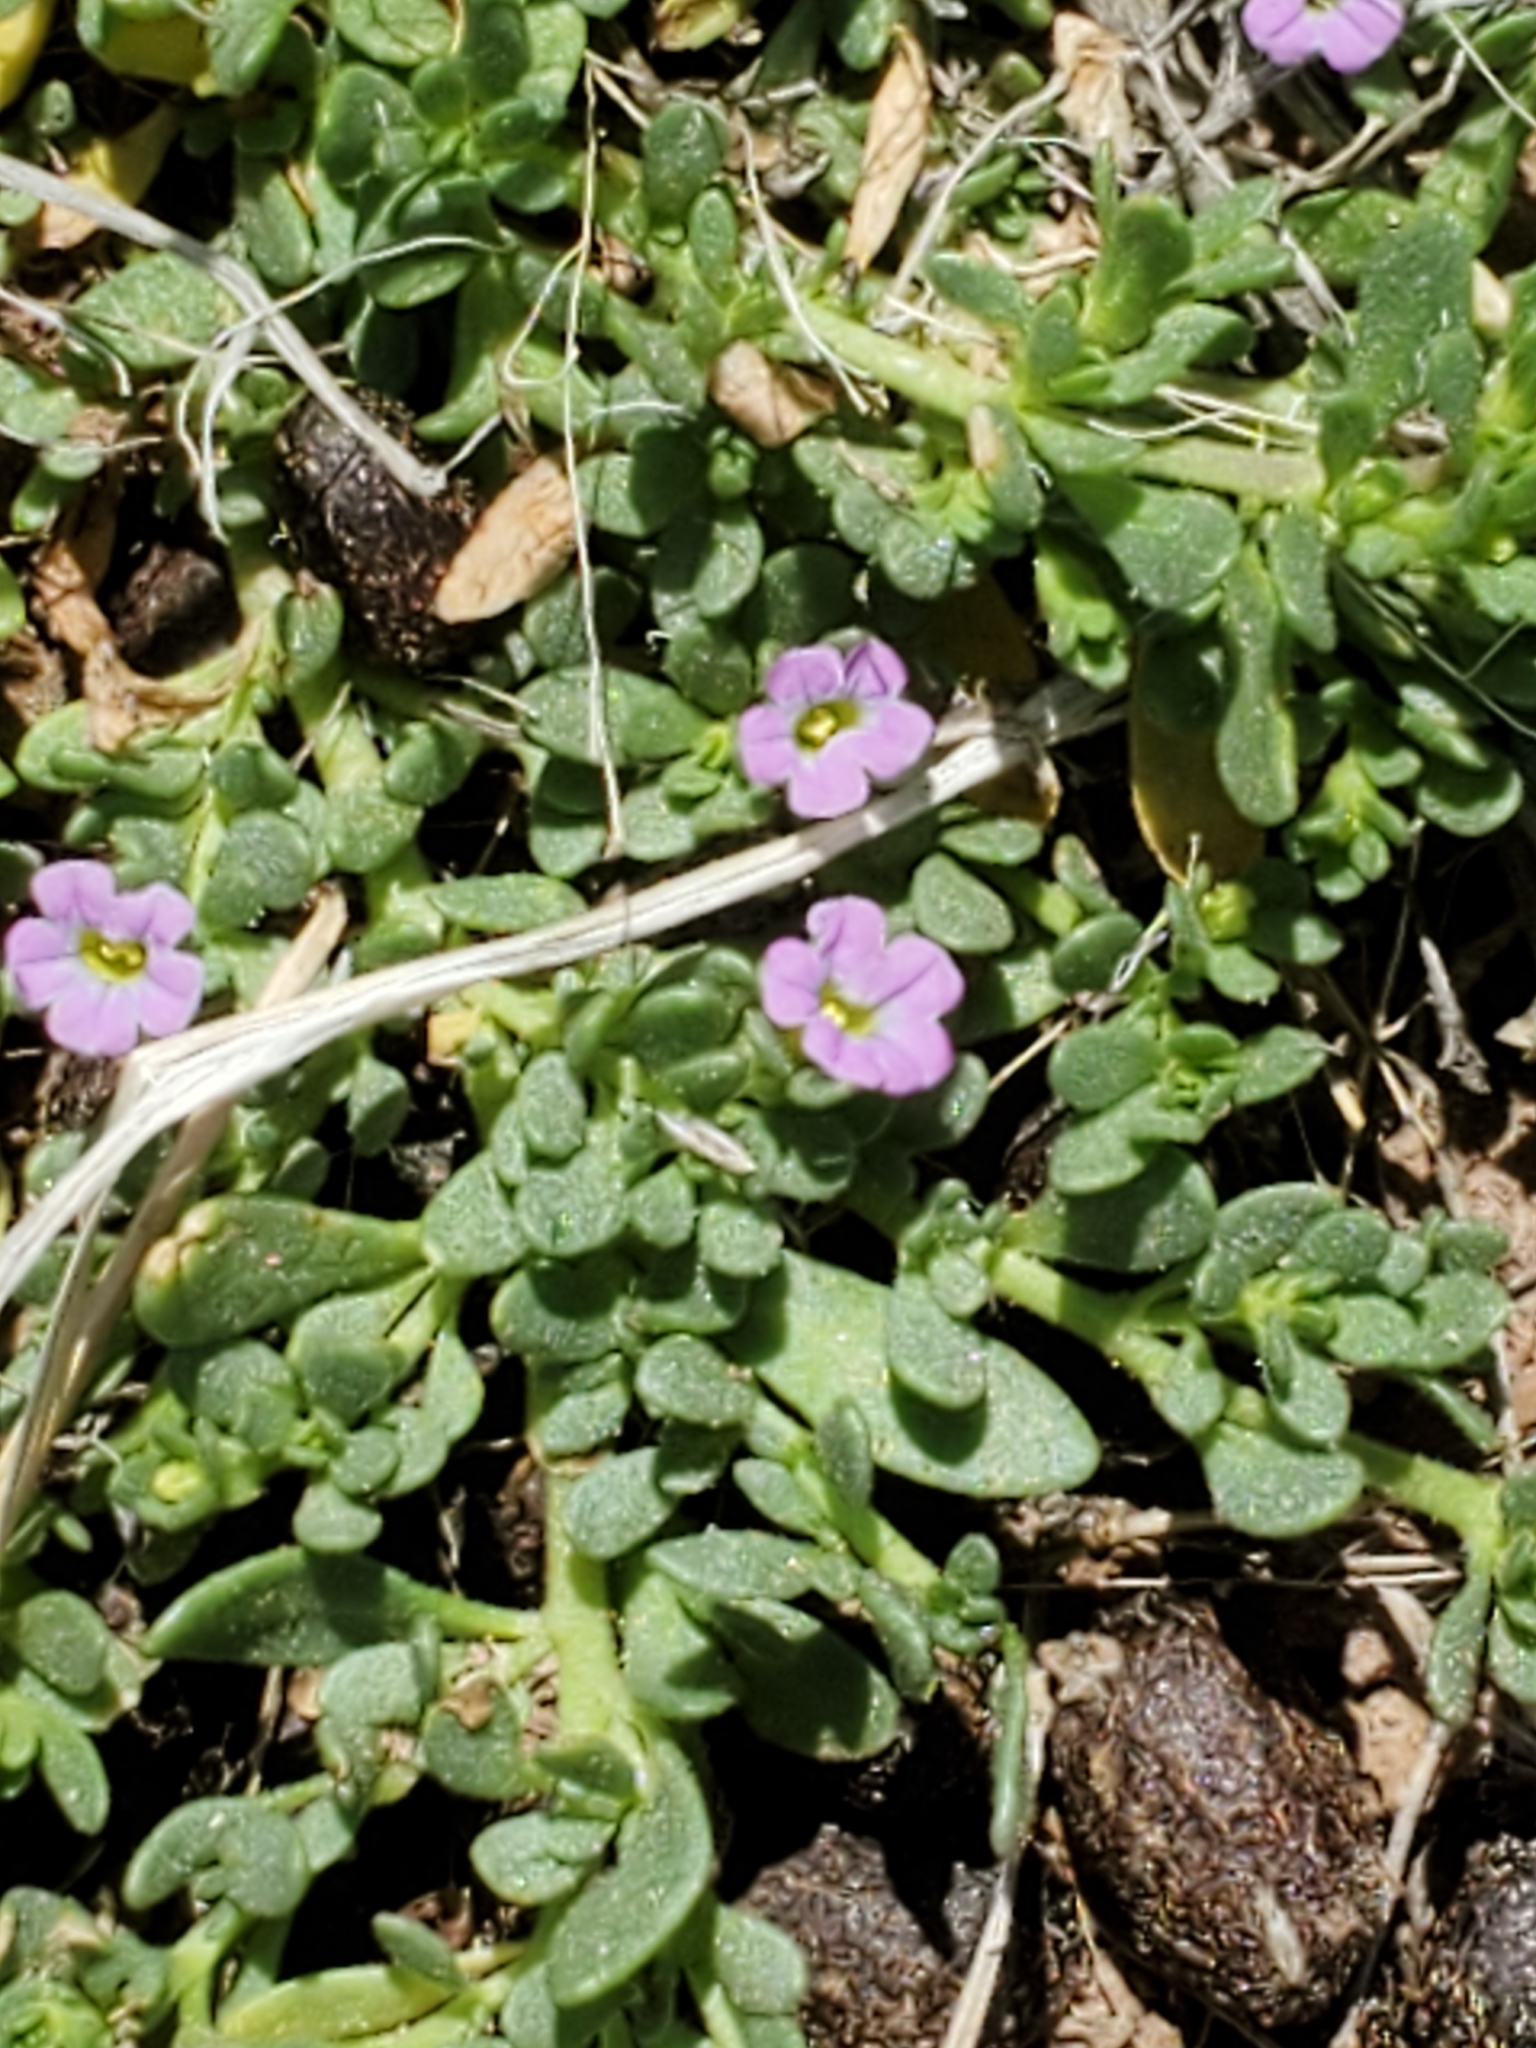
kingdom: Plantae
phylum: Tracheophyta
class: Magnoliopsida
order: Solanales
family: Solanaceae
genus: Calibrachoa
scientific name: Calibrachoa parviflora
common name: Seaside petunia
